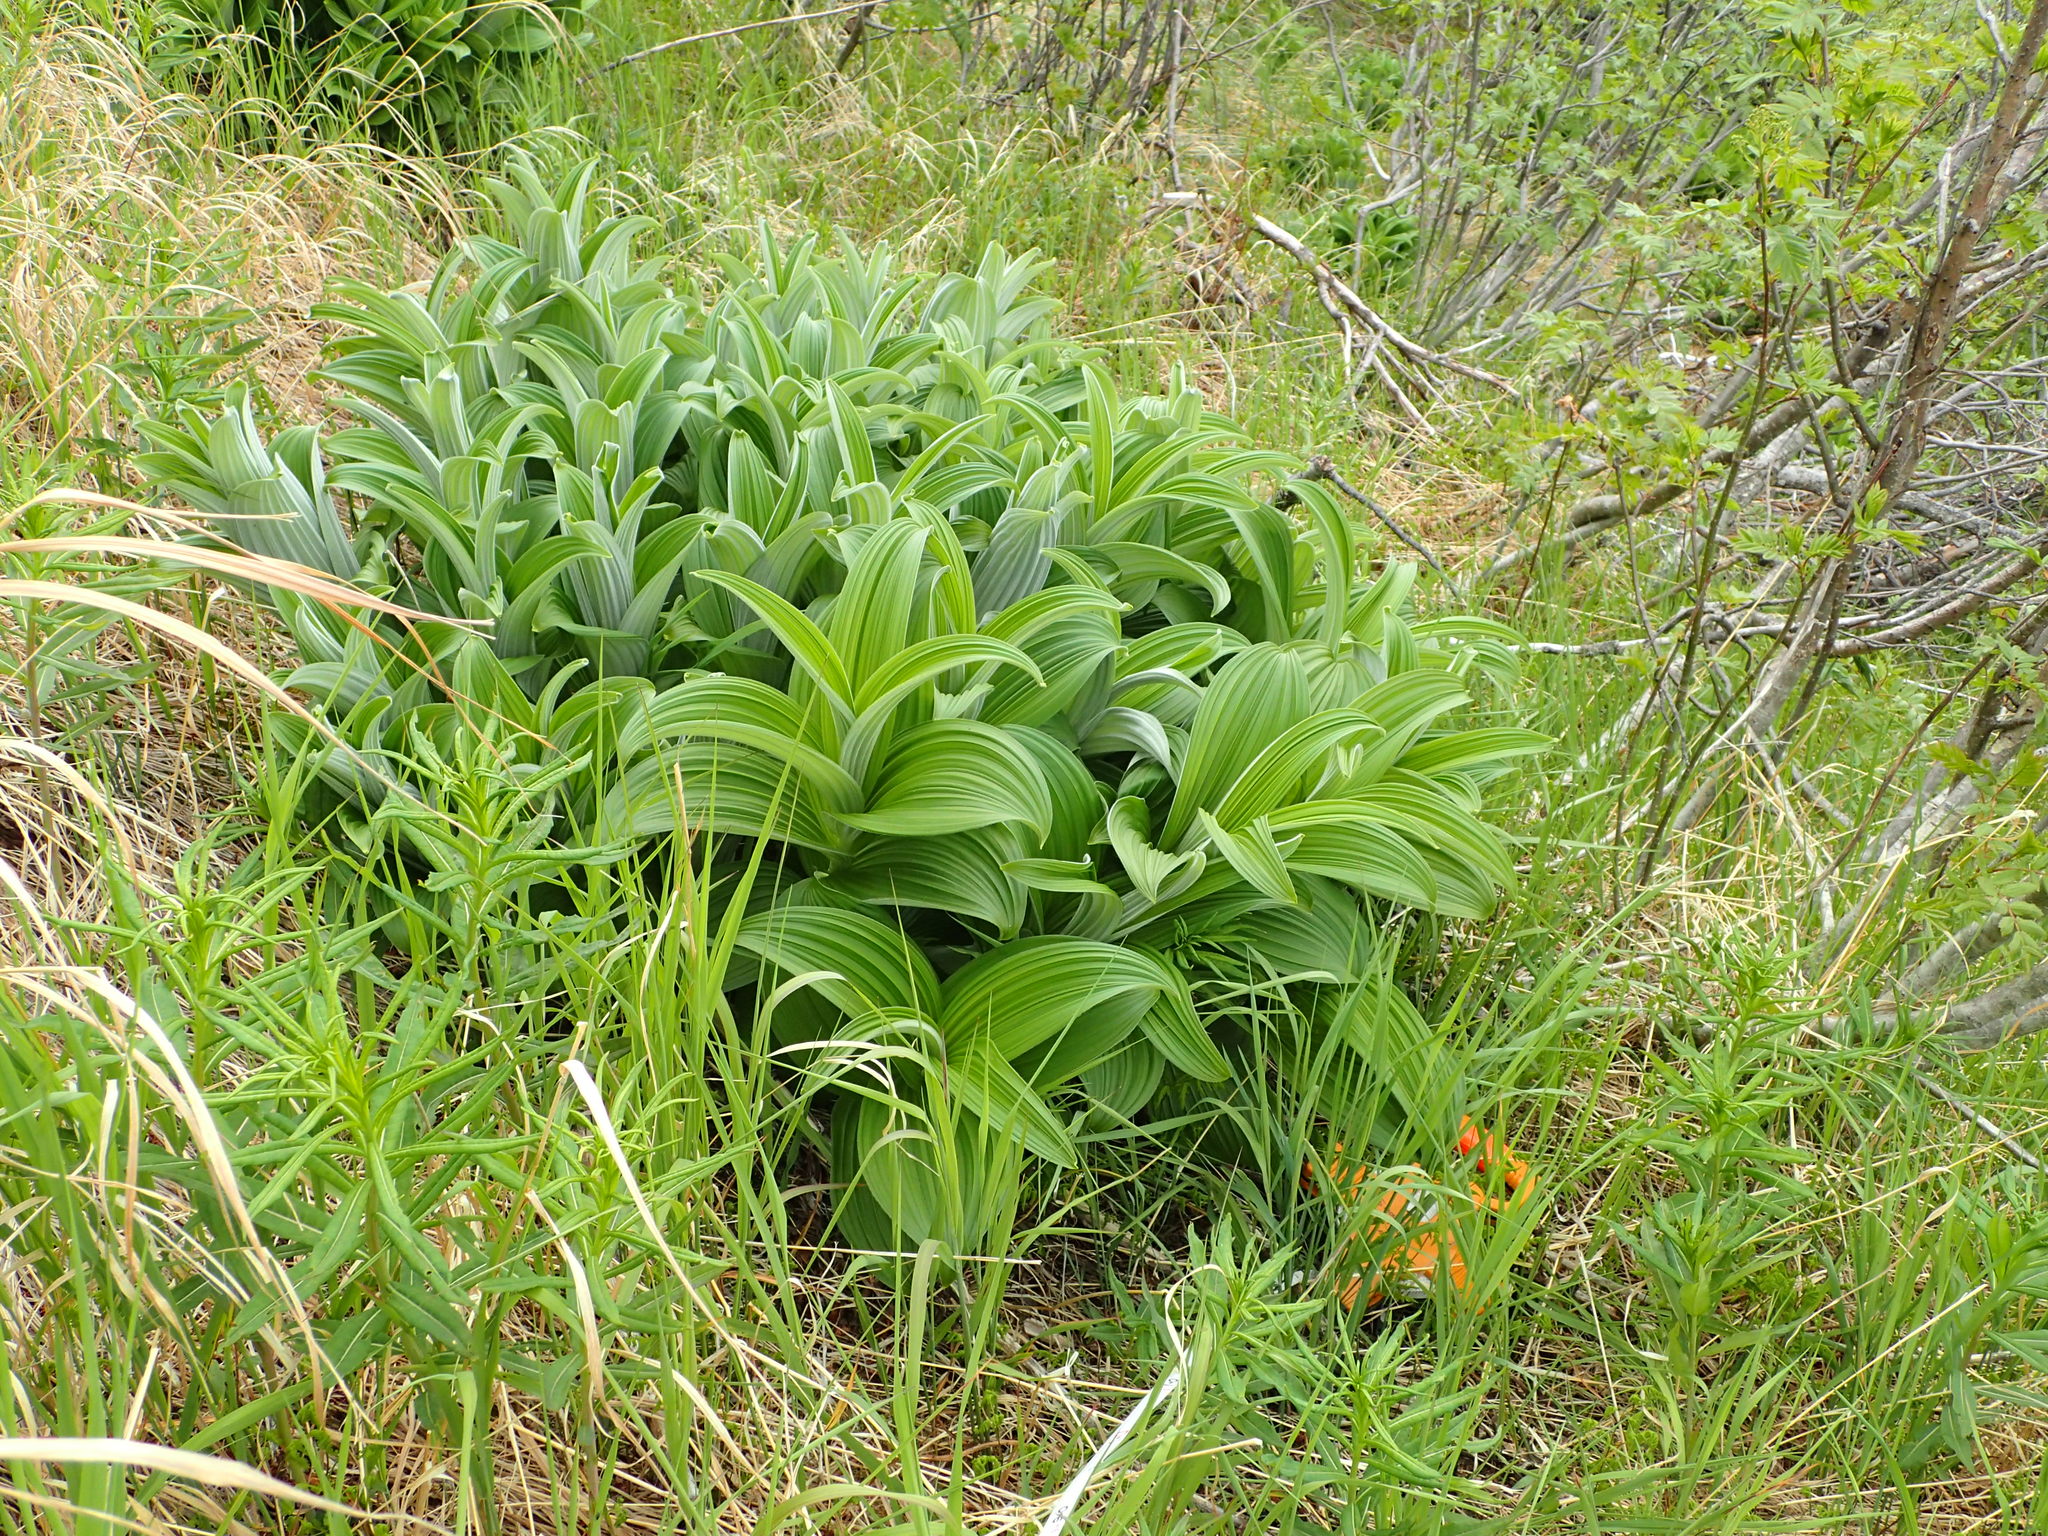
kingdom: Plantae
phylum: Tracheophyta
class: Liliopsida
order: Liliales
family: Melanthiaceae
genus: Veratrum
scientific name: Veratrum viride
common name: American false hellebore
